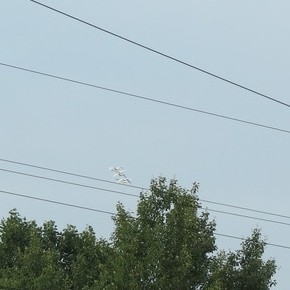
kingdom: Animalia
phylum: Chordata
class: Aves
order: Anseriformes
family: Anatidae
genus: Cygnus
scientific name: Cygnus
